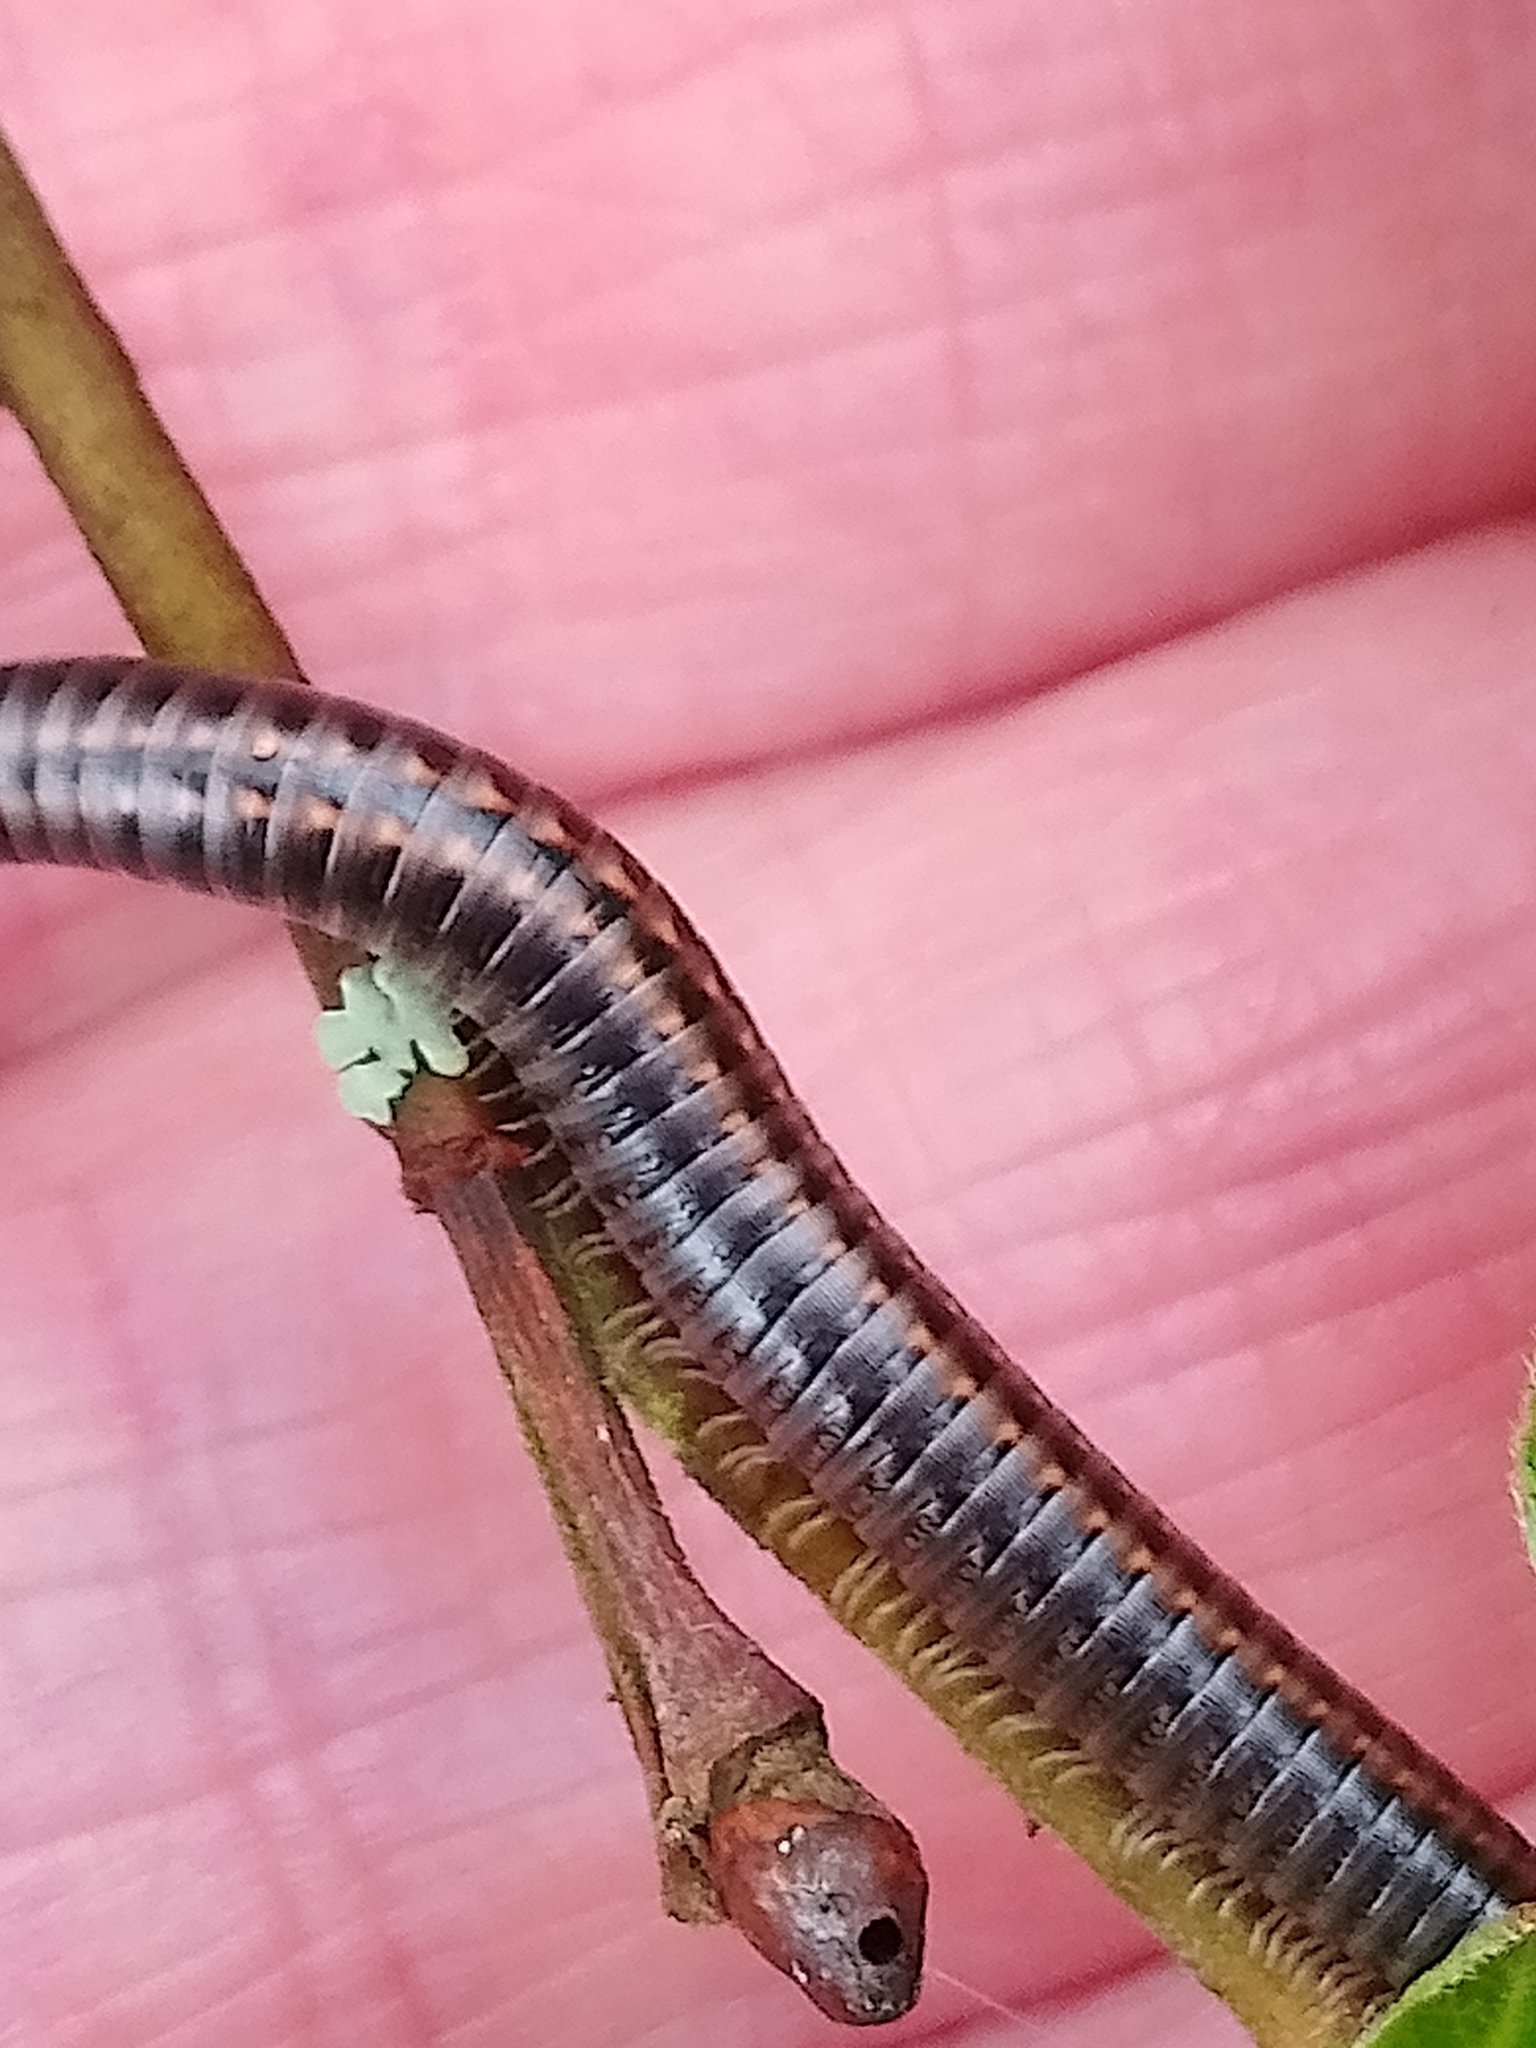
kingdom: Animalia
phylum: Arthropoda
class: Diplopoda
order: Julida
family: Julidae
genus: Ommatoiulus
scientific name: Ommatoiulus sabulosus
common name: Striped millipede
